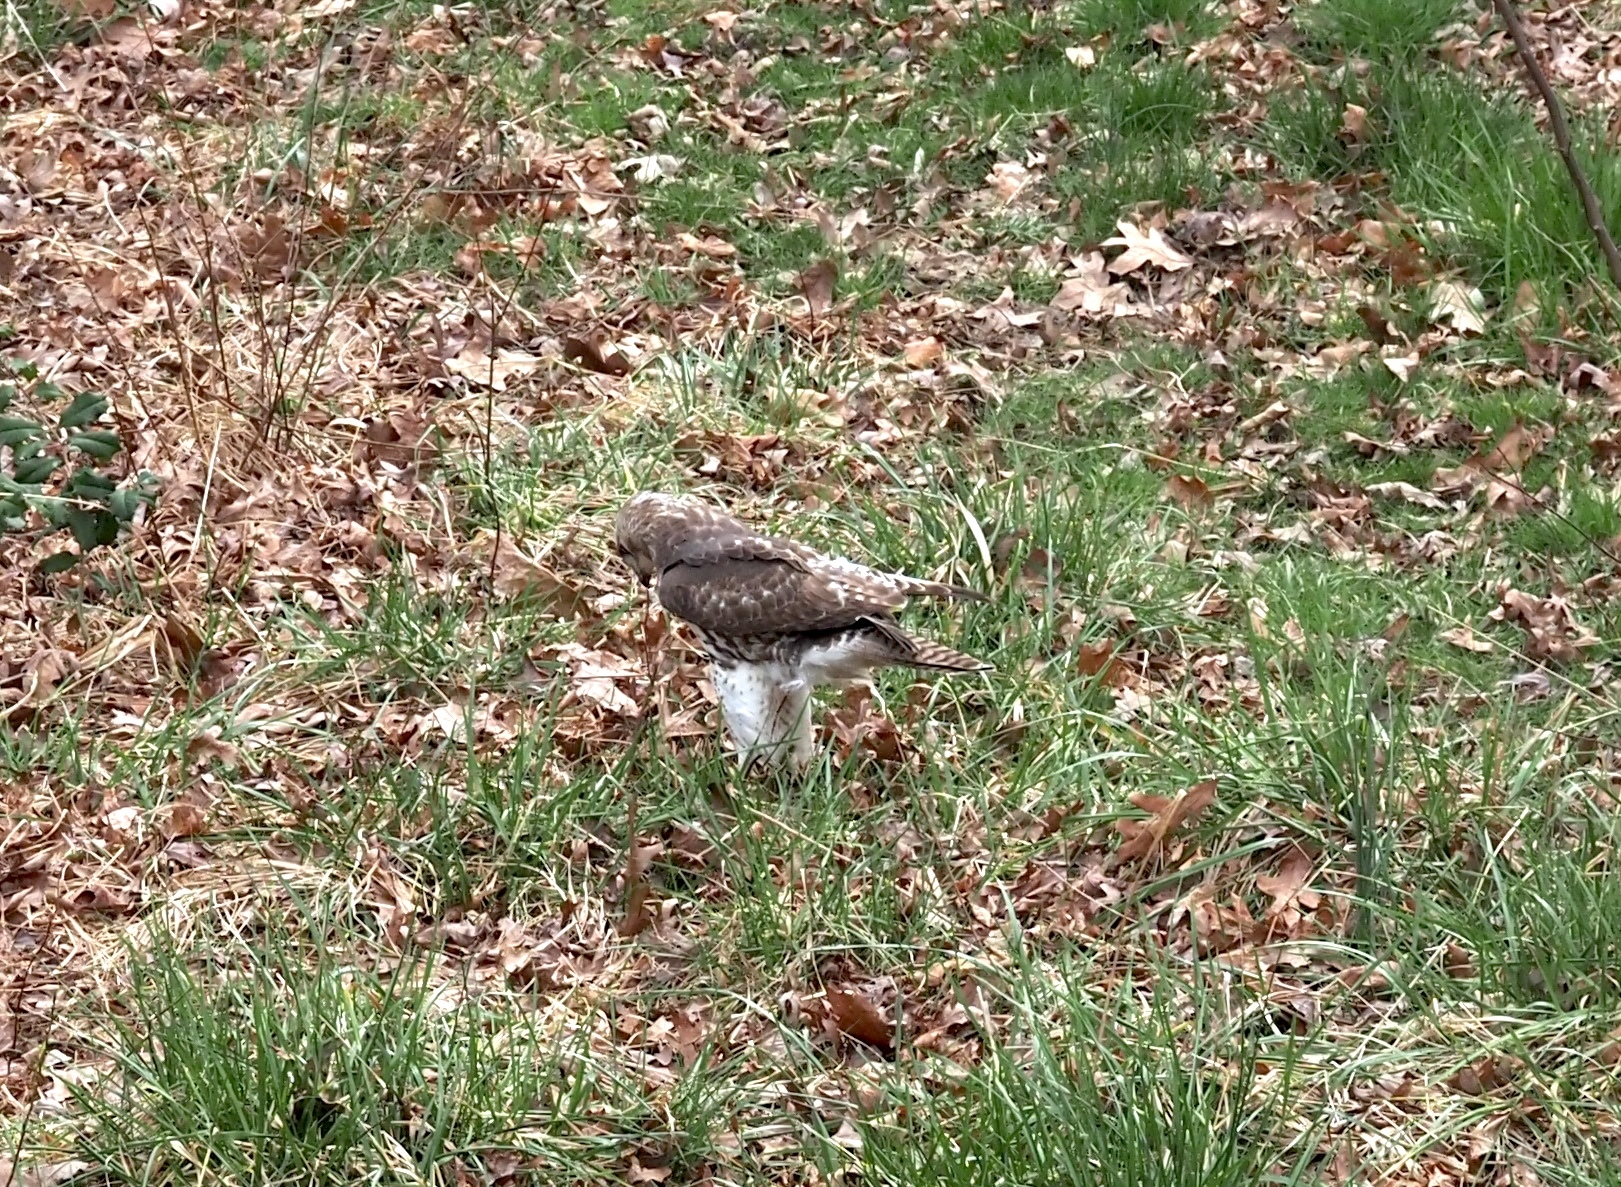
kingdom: Animalia
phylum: Chordata
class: Aves
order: Accipitriformes
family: Accipitridae
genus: Buteo
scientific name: Buteo jamaicensis
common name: Red-tailed hawk
